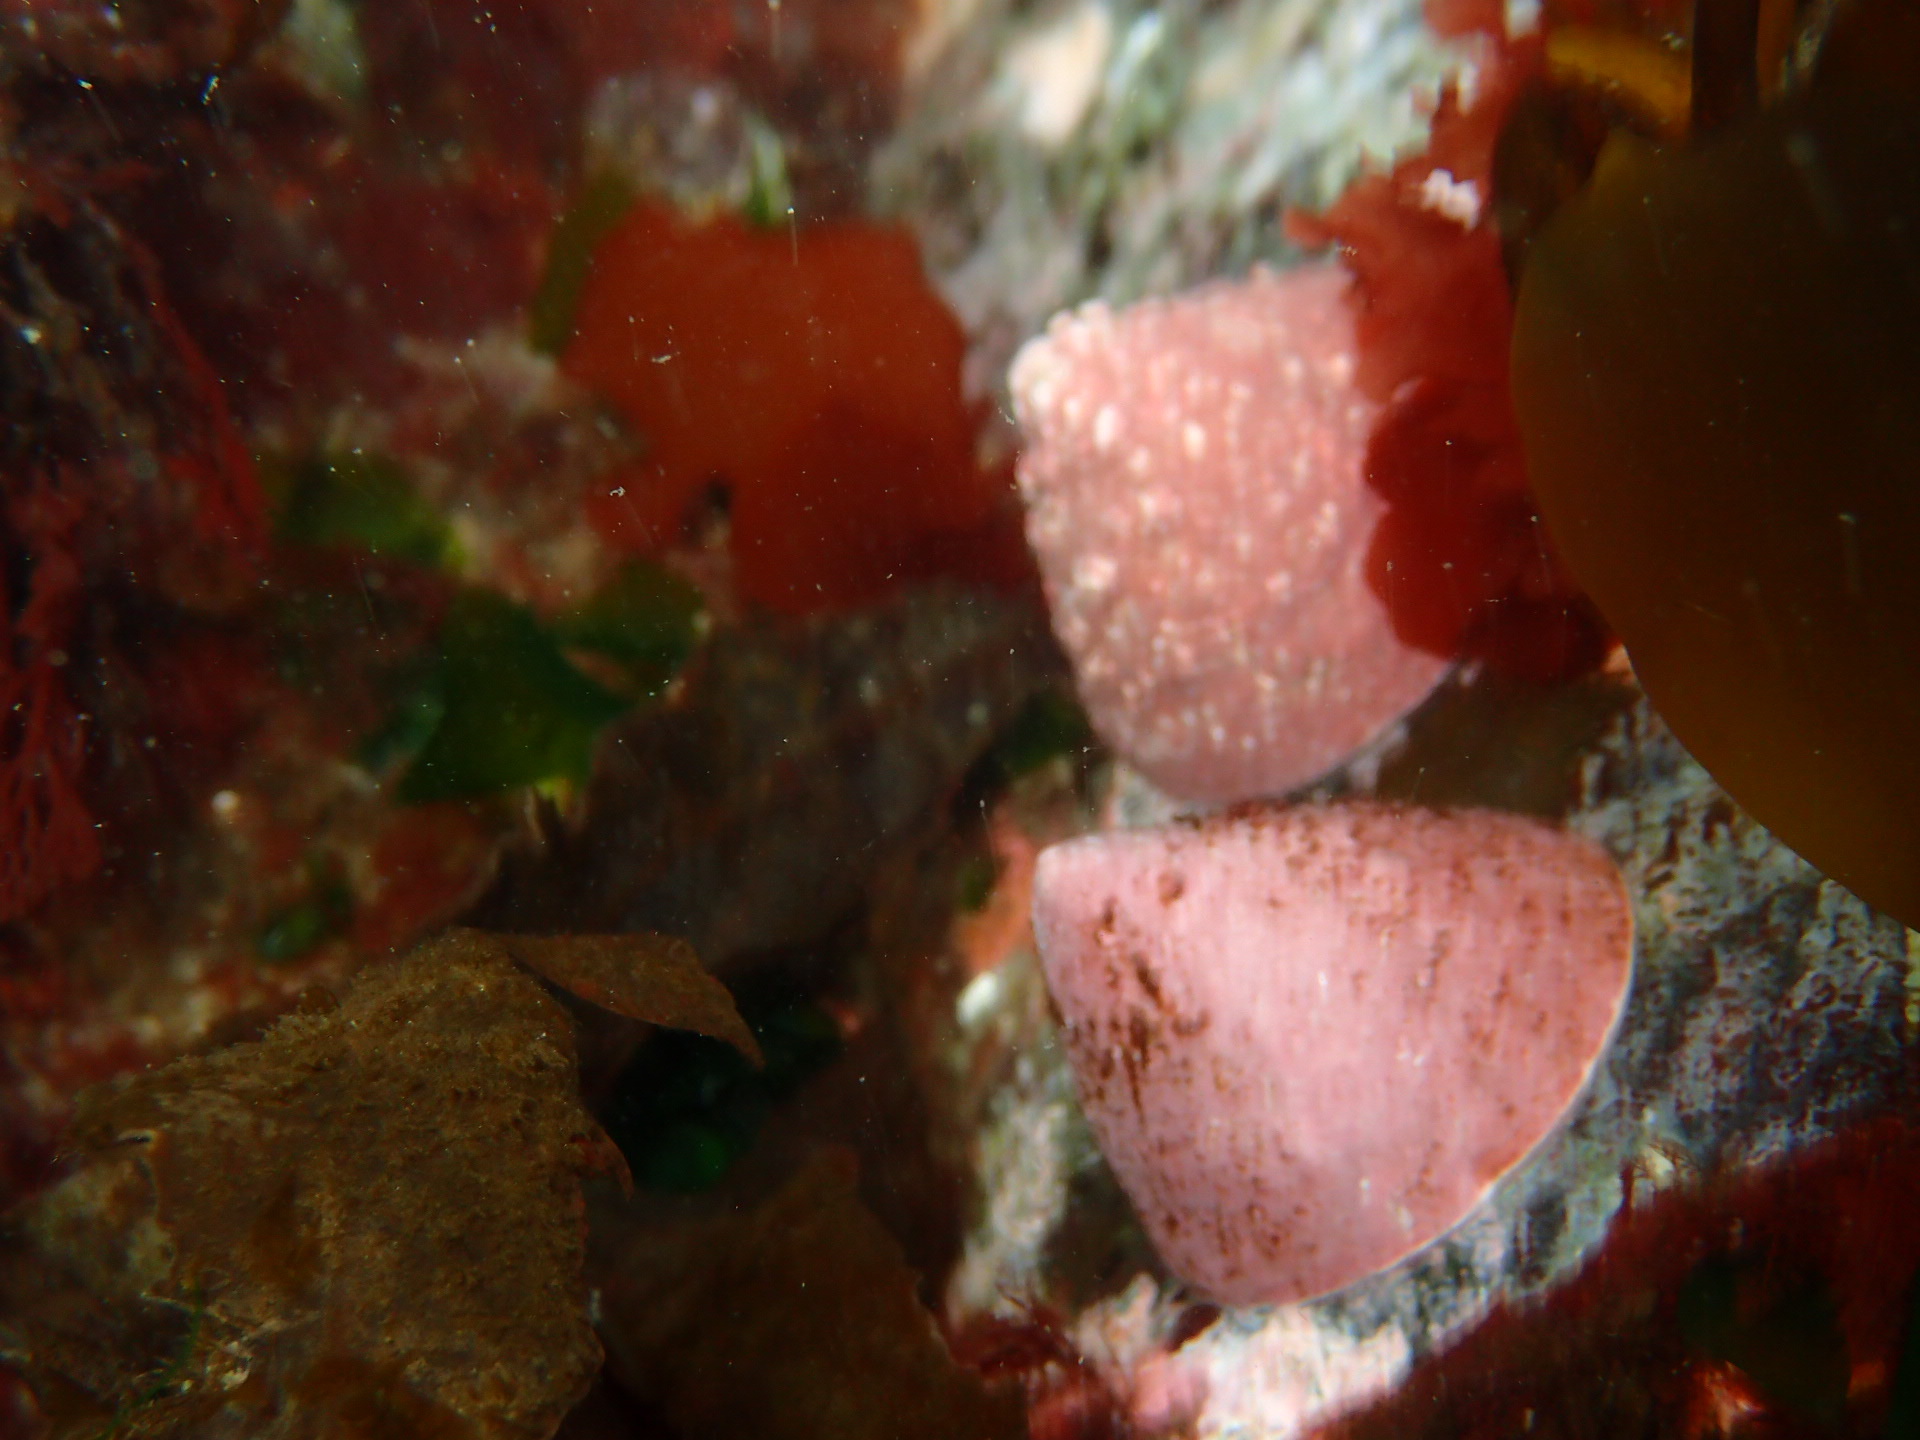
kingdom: Animalia
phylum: Mollusca
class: Gastropoda
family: Acmaeidae
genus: Acmaea
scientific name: Acmaea mitra
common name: Pacific white cap limpet
